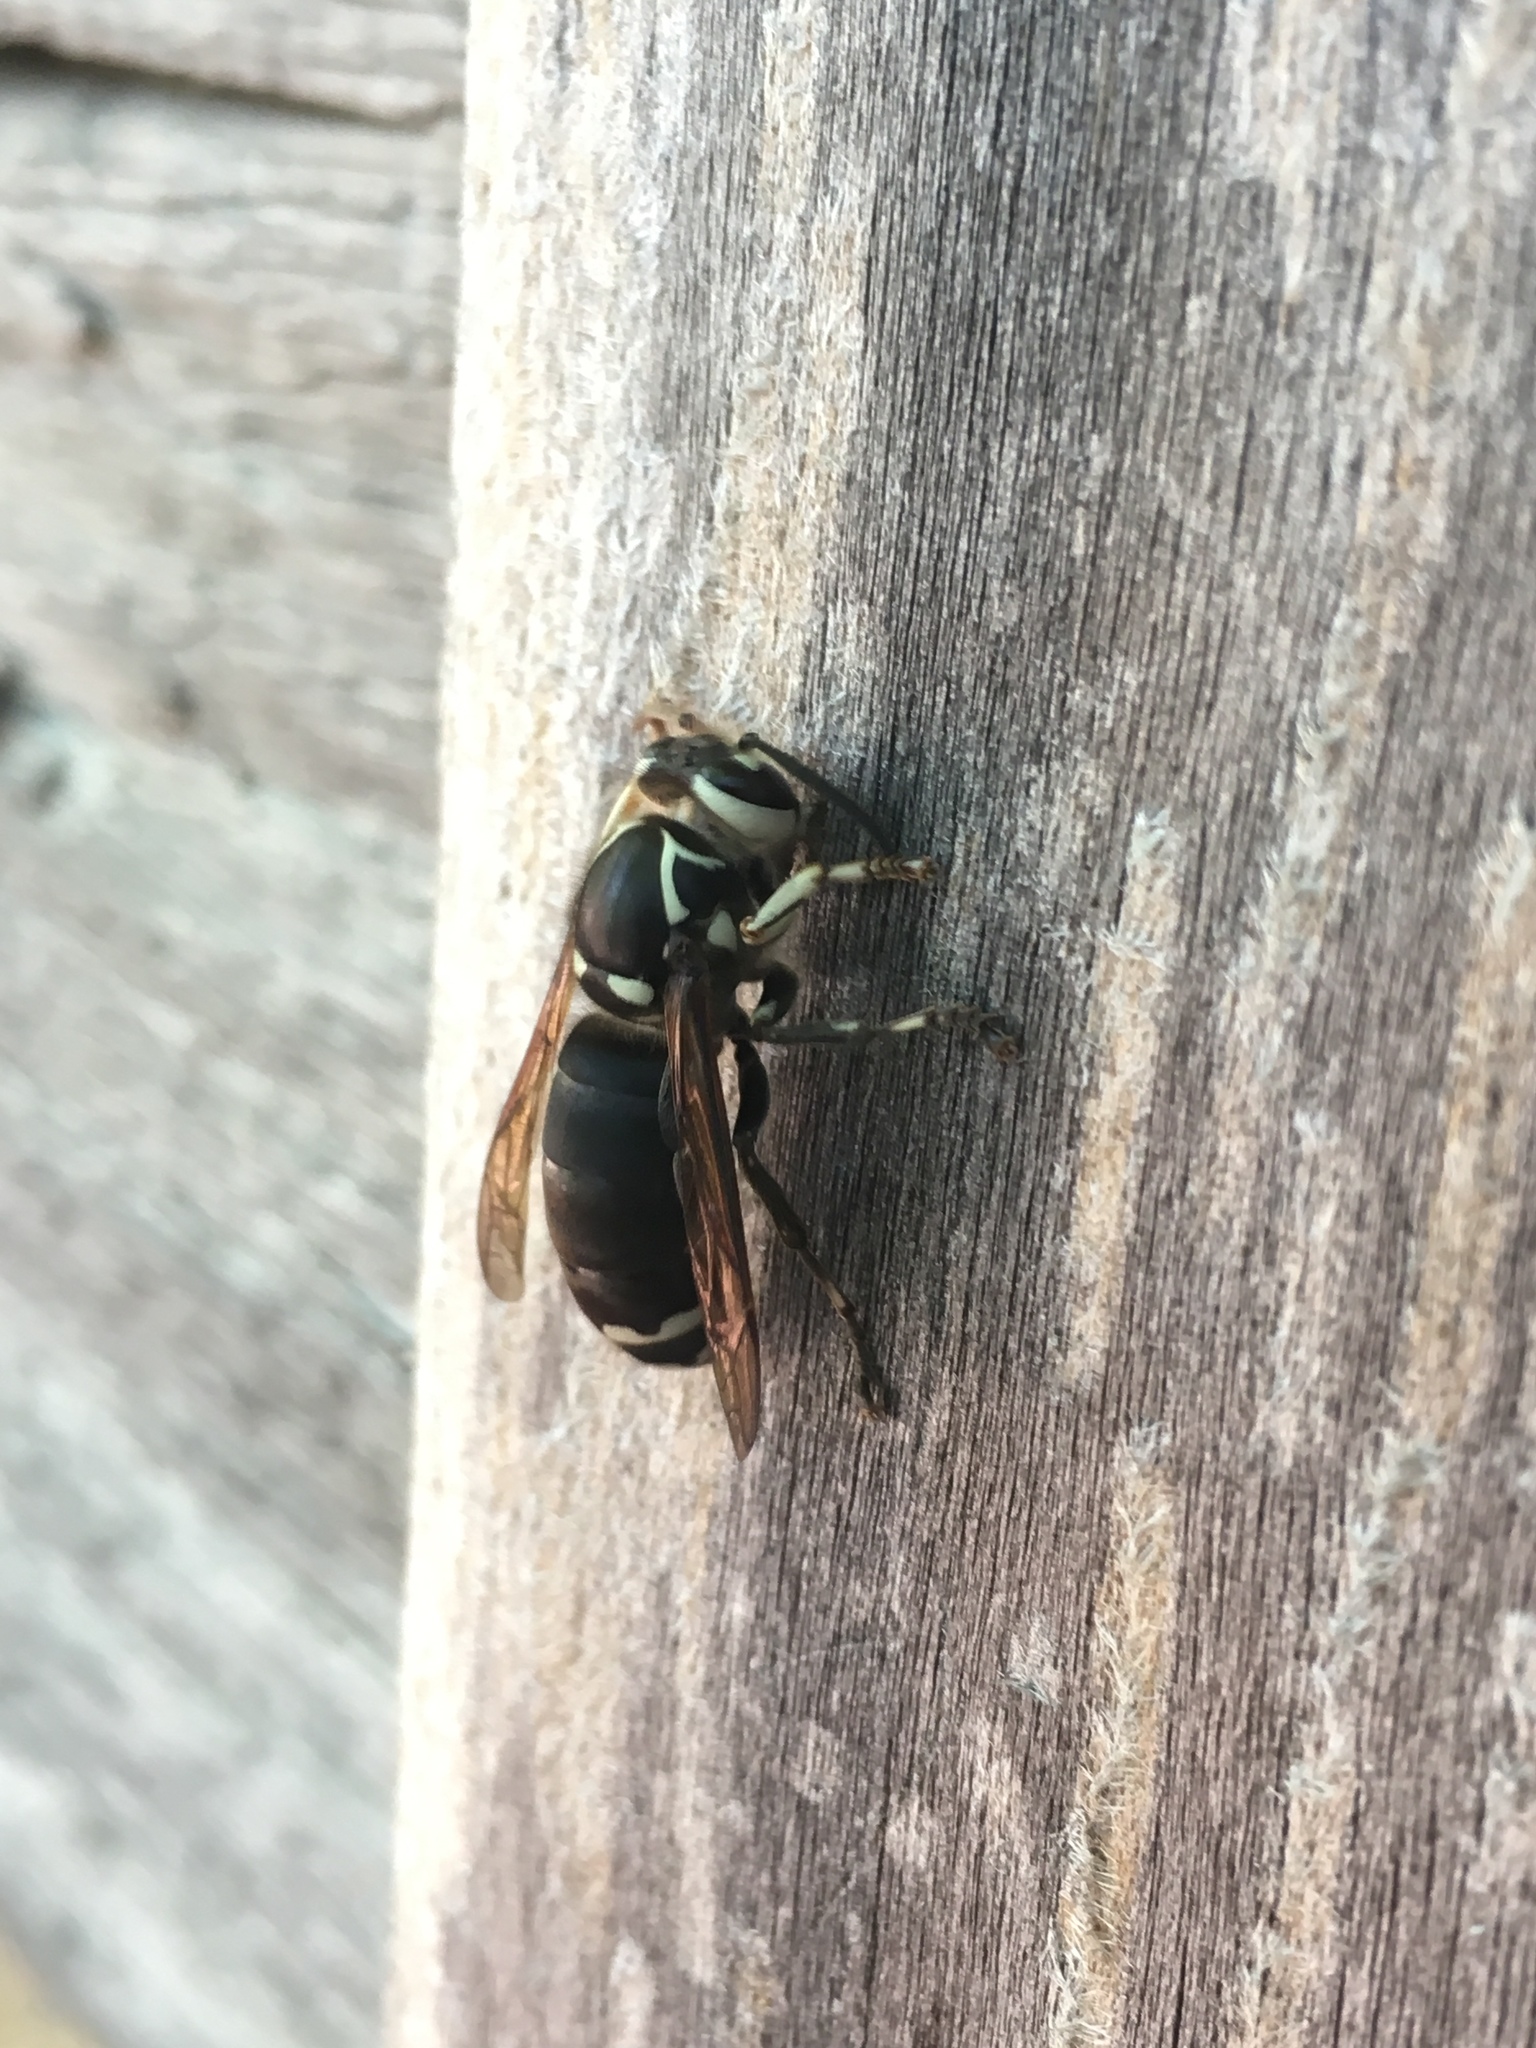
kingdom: Animalia
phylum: Arthropoda
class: Insecta
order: Hymenoptera
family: Vespidae
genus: Dolichovespula
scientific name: Dolichovespula maculata
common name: Bald-faced hornet
